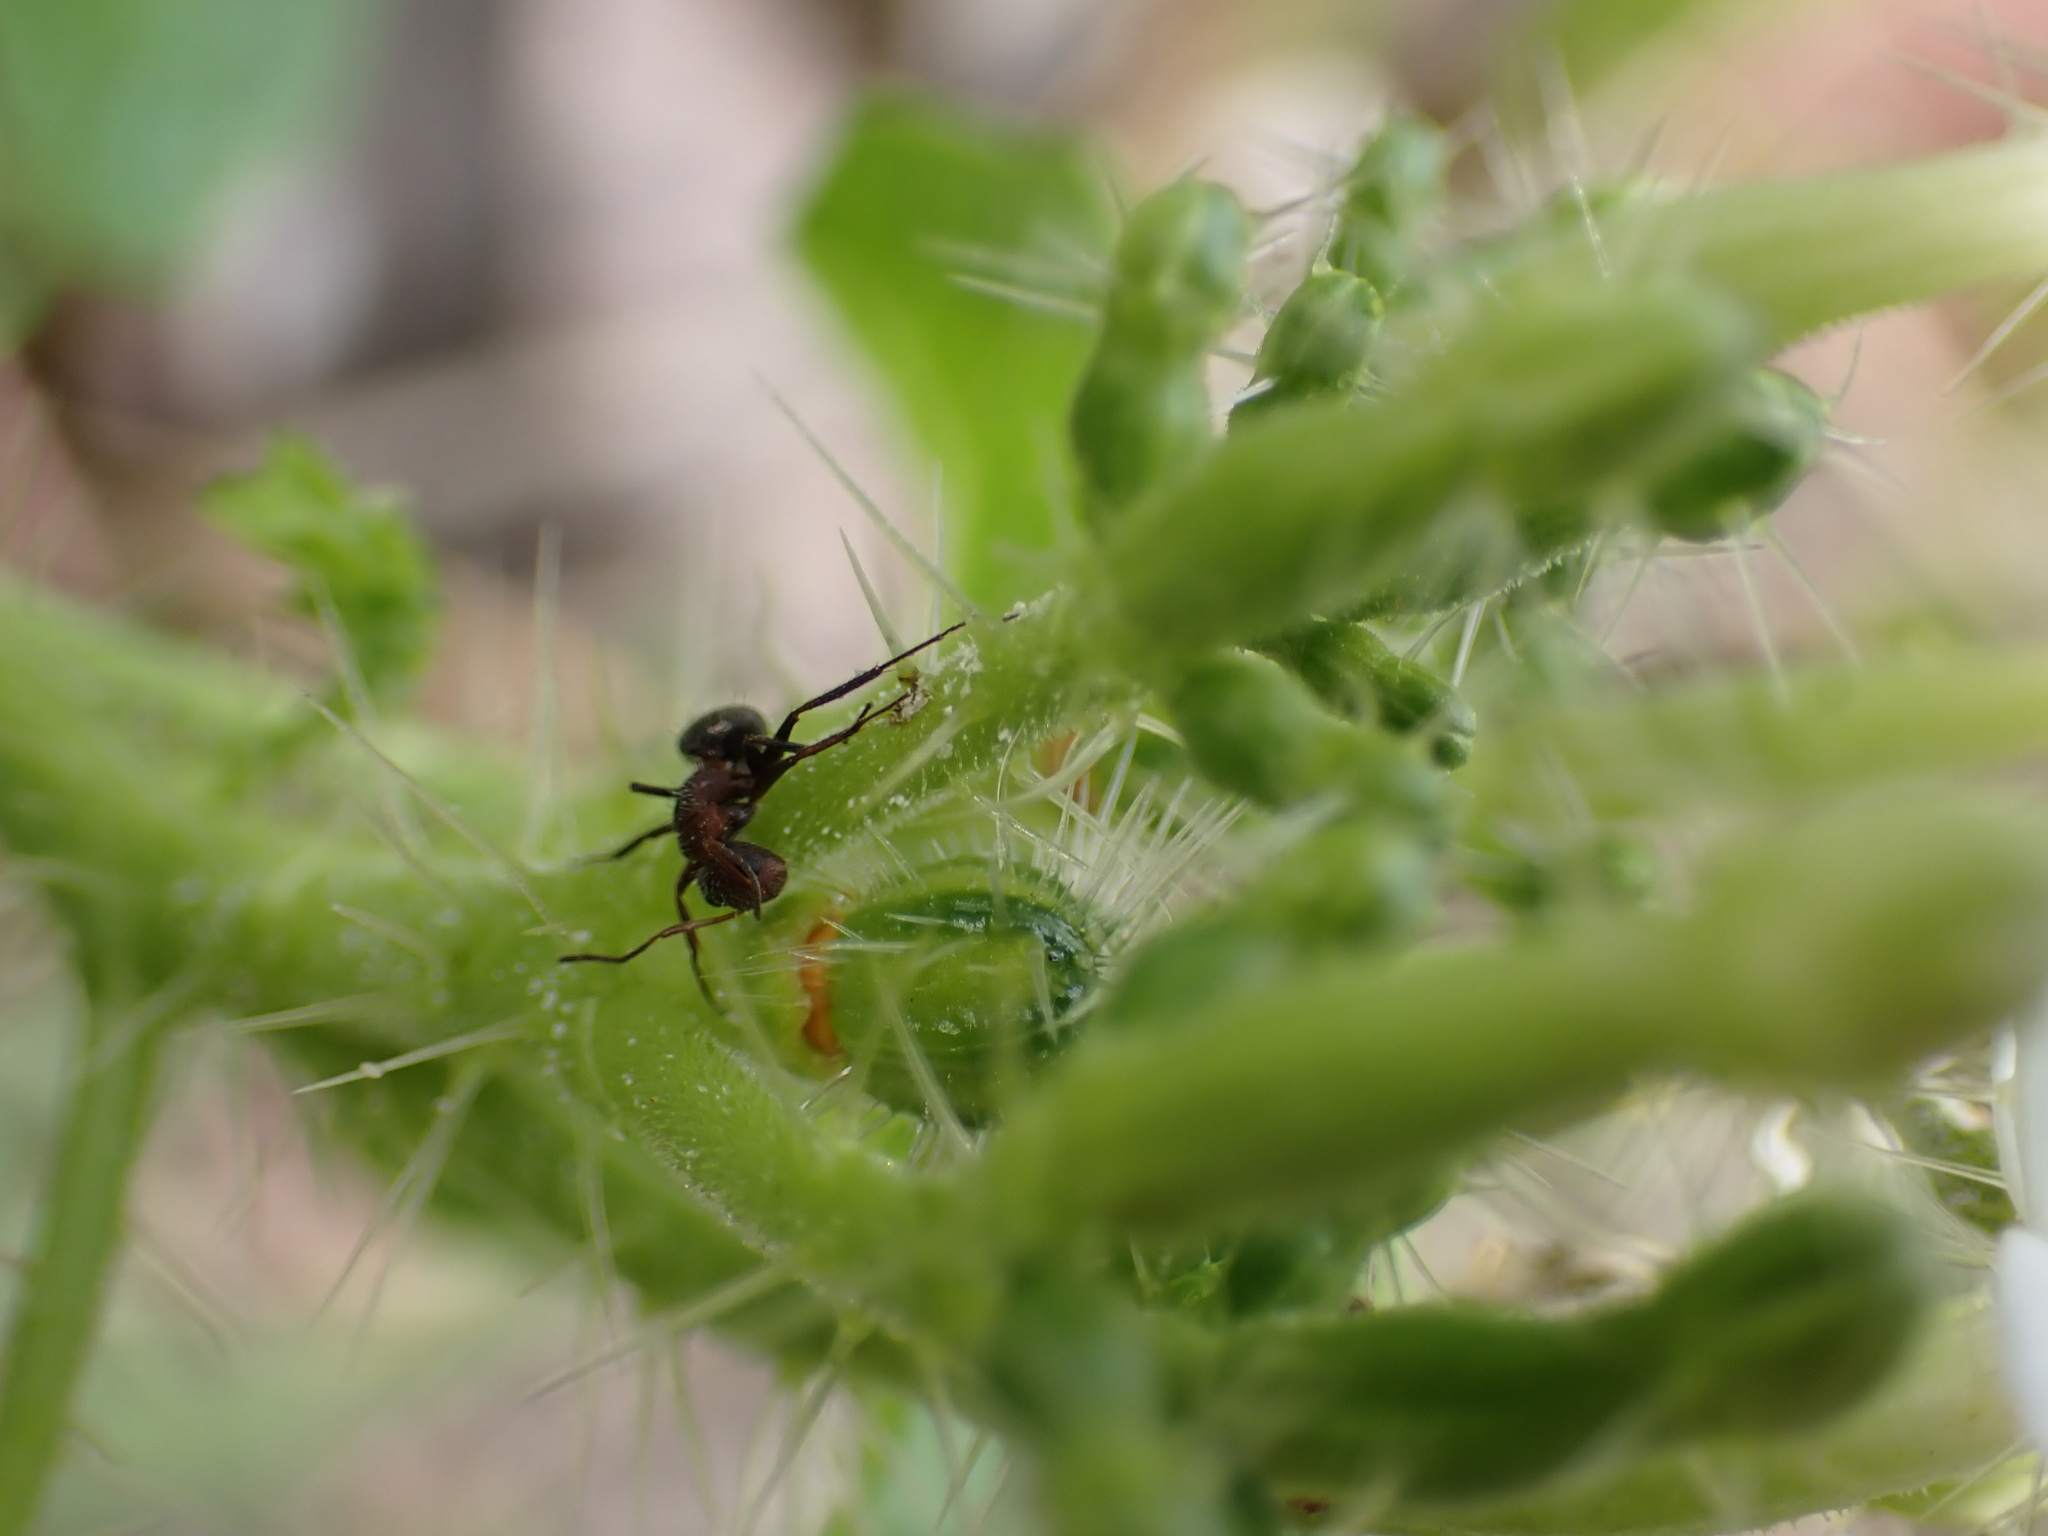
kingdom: Animalia
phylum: Arthropoda
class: Insecta
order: Hymenoptera
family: Formicidae
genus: Camponotus
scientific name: Camponotus planatus
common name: Compact carpenter ant
